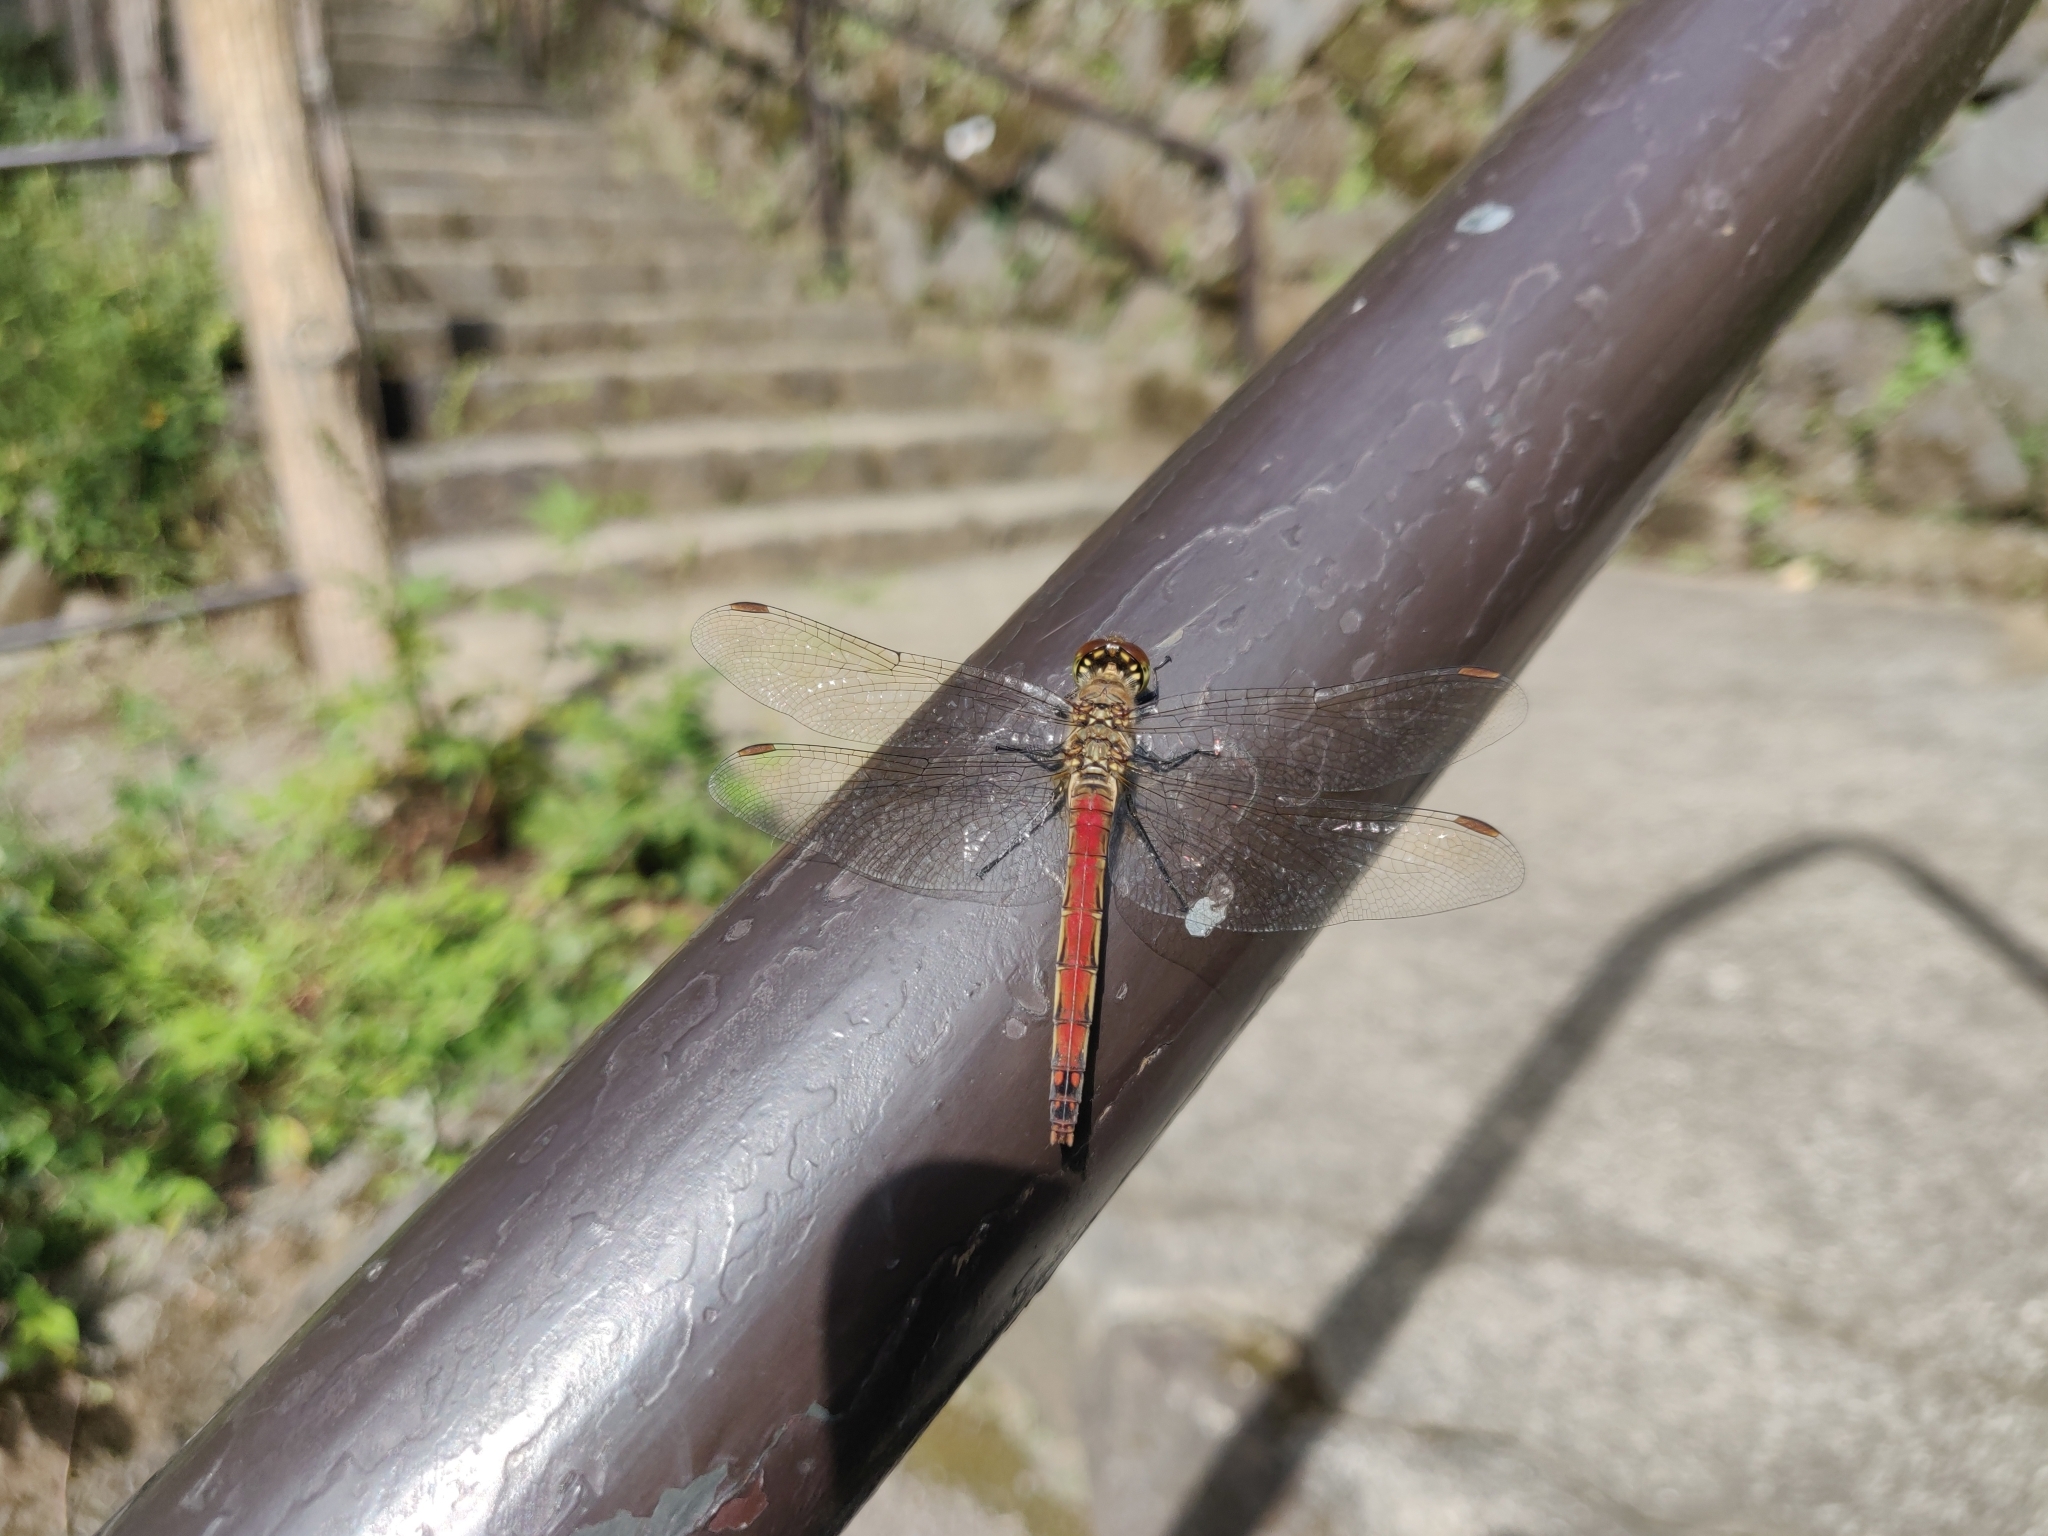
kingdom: Animalia
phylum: Arthropoda
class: Insecta
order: Odonata
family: Libellulidae
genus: Sympetrum
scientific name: Sympetrum frequens
